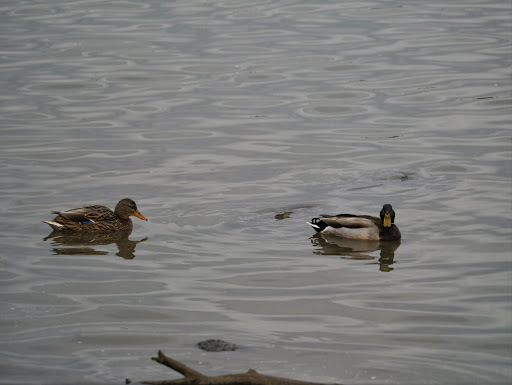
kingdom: Animalia
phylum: Chordata
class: Aves
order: Anseriformes
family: Anatidae
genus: Anas
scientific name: Anas platyrhynchos
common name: Mallard
